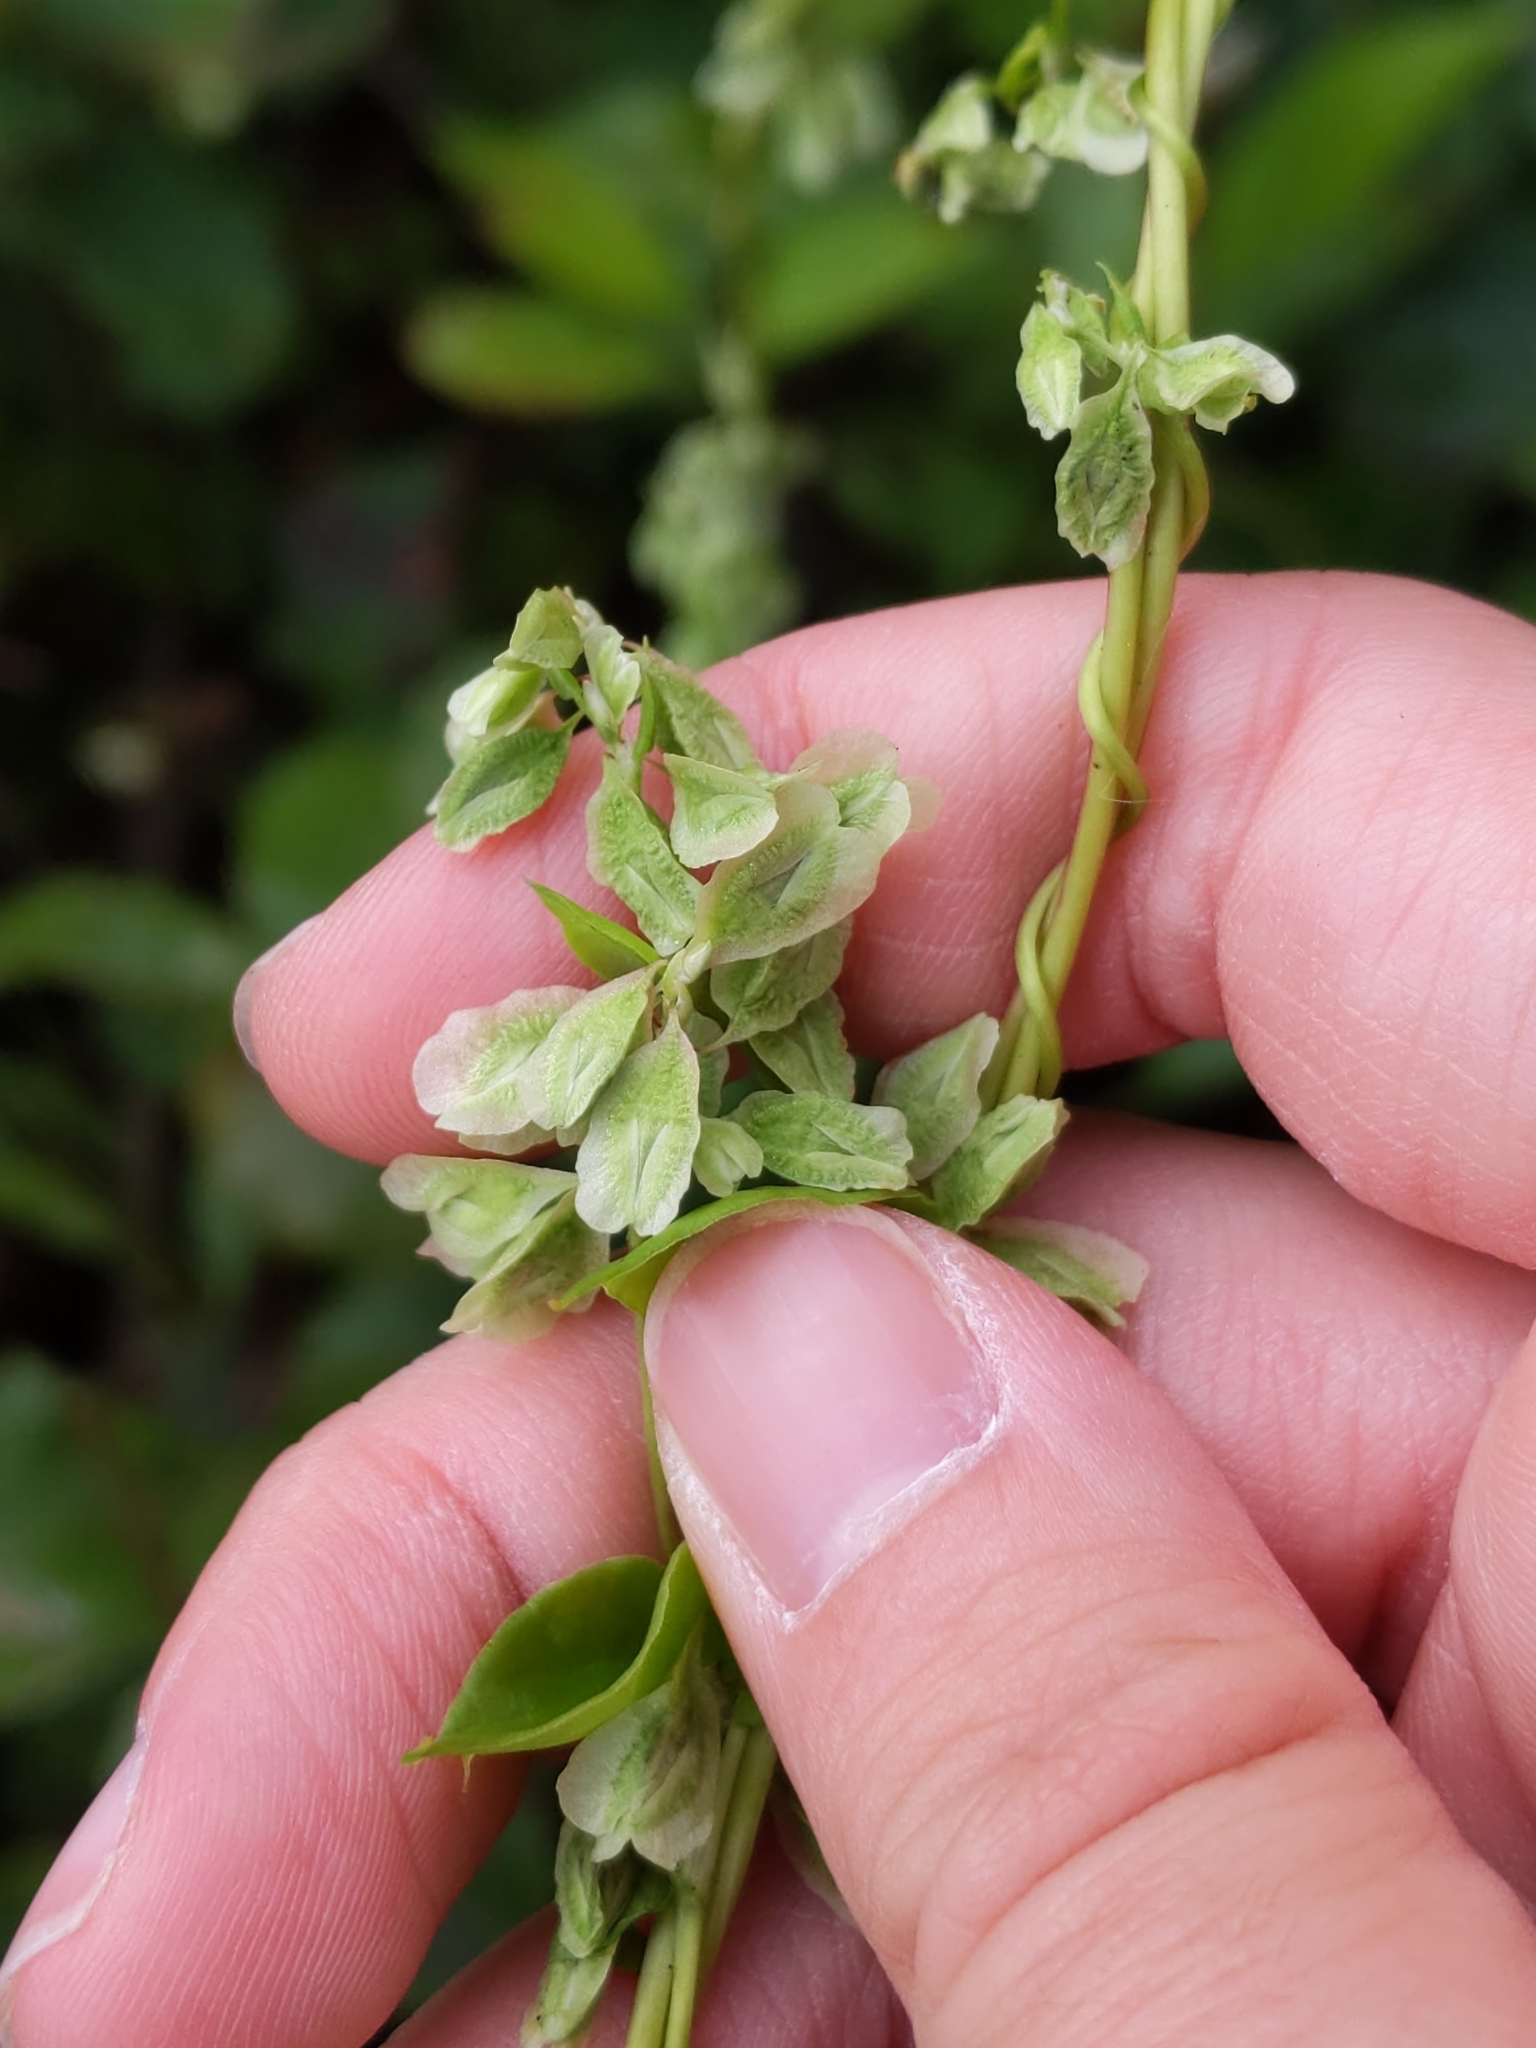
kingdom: Plantae
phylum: Tracheophyta
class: Magnoliopsida
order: Caryophyllales
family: Polygonaceae
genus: Fallopia
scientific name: Fallopia scandens
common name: Climbing false buckwheat
